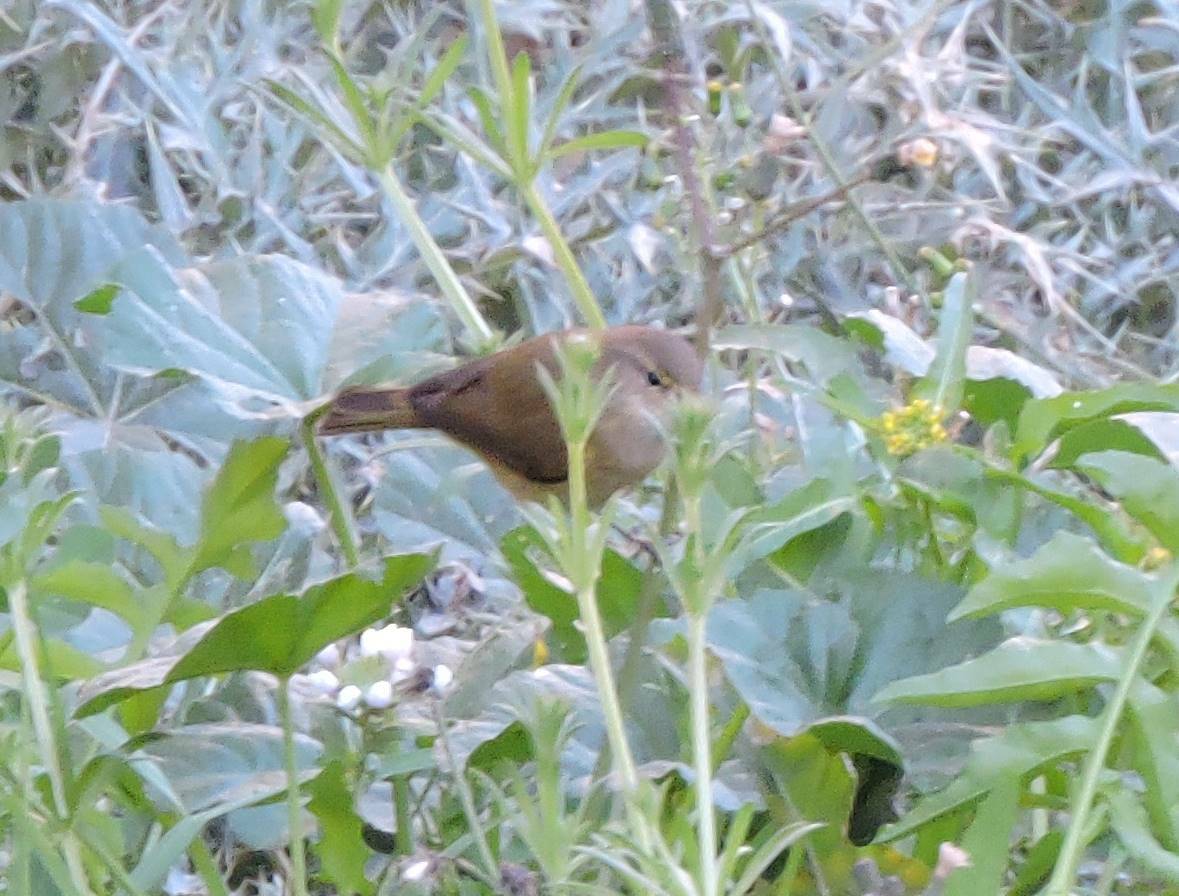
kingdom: Animalia
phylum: Chordata
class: Aves
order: Passeriformes
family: Phylloscopidae
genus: Phylloscopus
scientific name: Phylloscopus collybita
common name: Common chiffchaff
